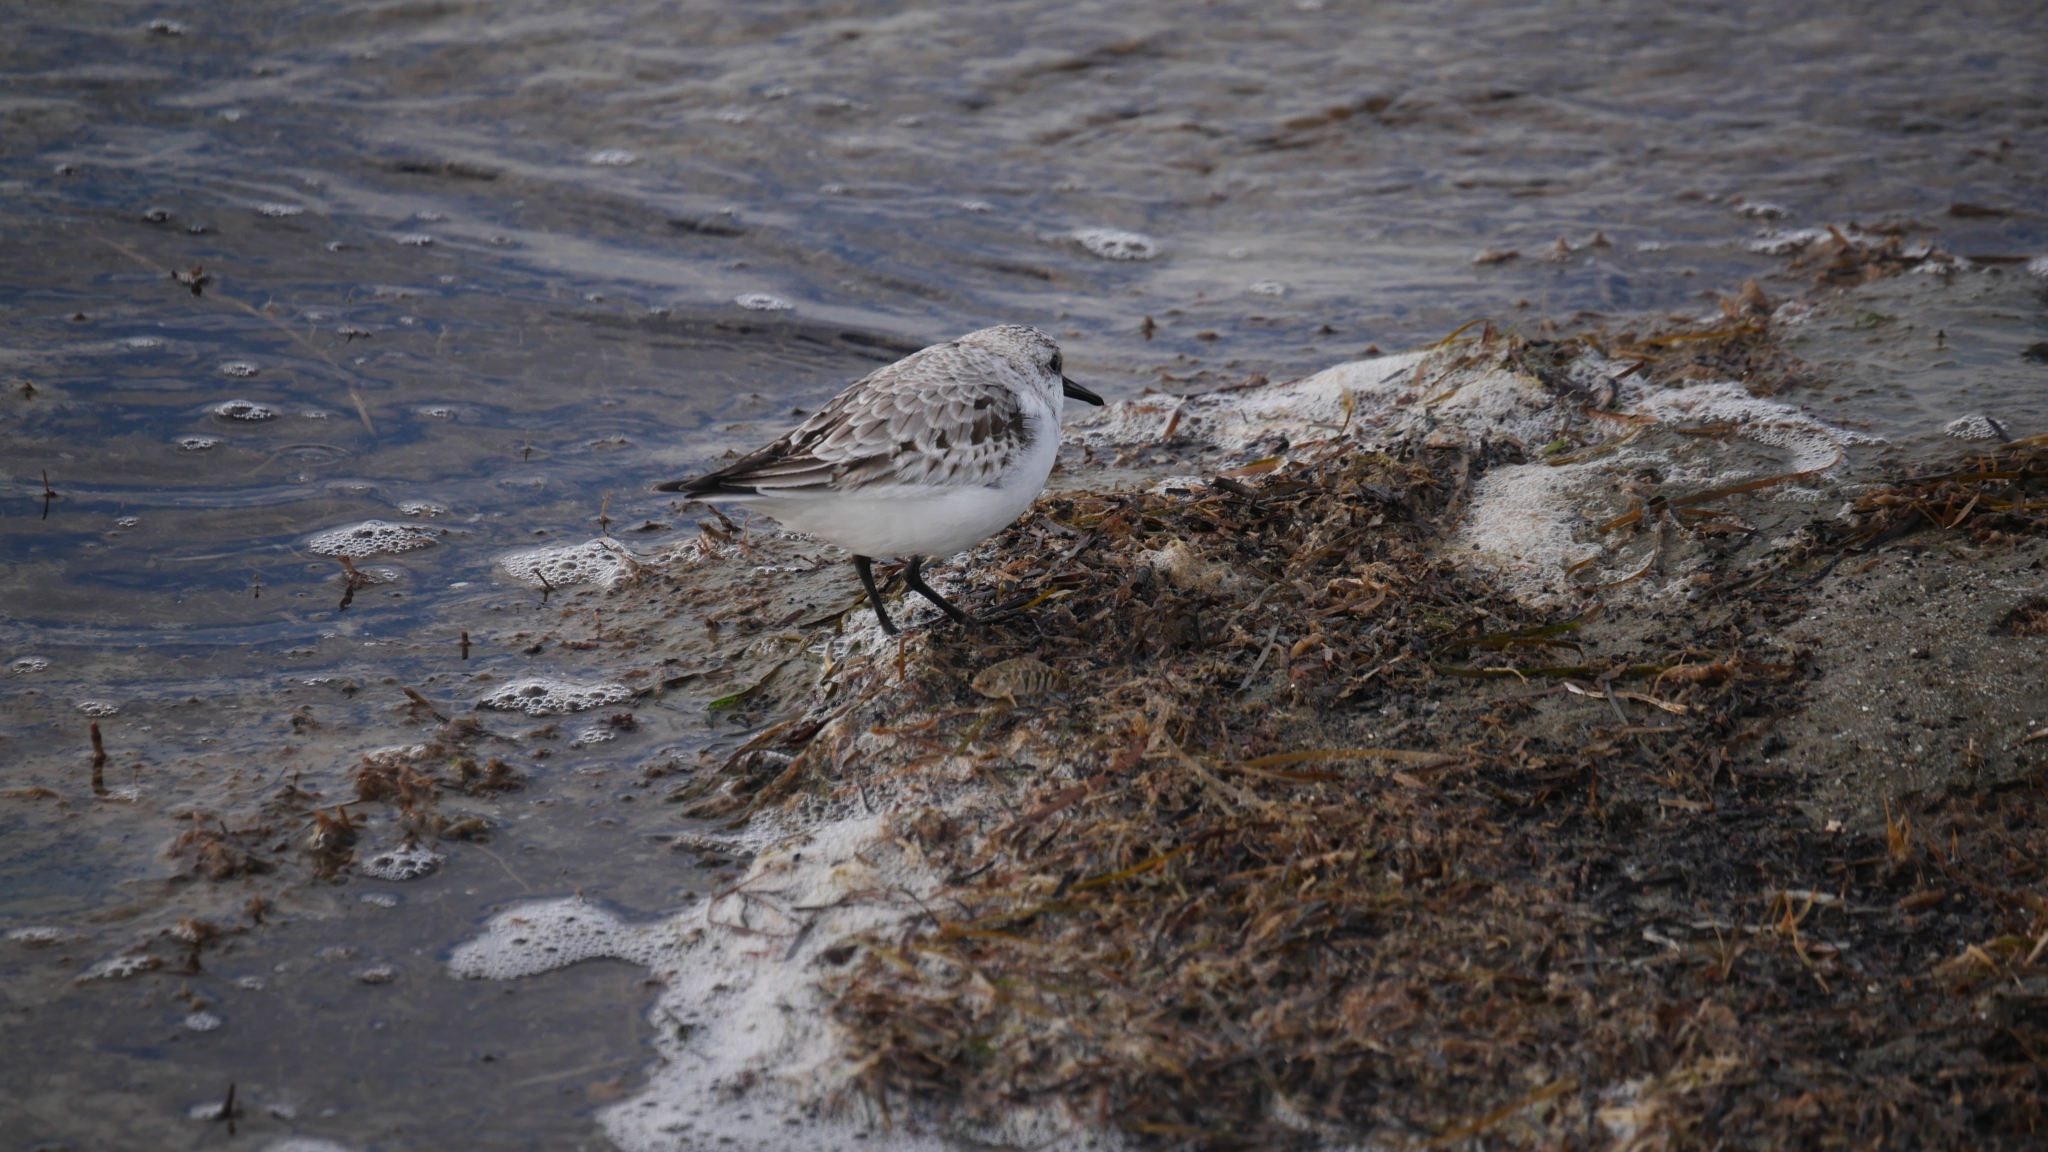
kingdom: Animalia
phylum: Chordata
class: Aves
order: Charadriiformes
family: Scolopacidae
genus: Calidris
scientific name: Calidris alba
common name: Sanderling
